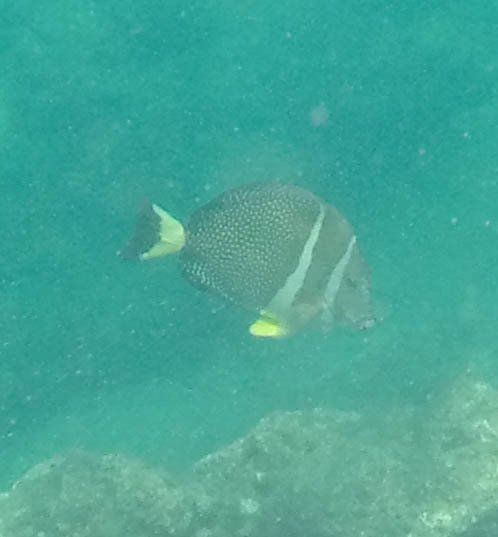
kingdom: Animalia
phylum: Chordata
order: Perciformes
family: Acanthuridae
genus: Acanthurus
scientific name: Acanthurus guttatus
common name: Whitespotted surgeonfish
